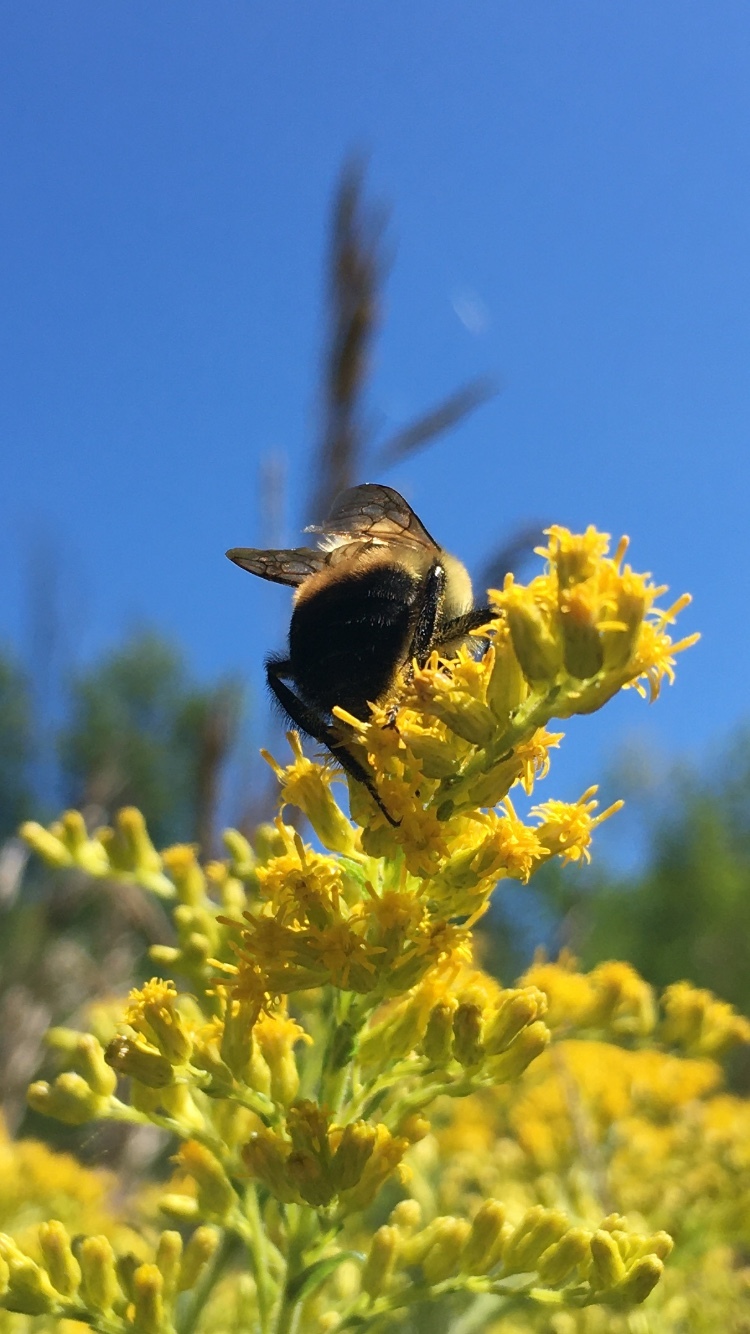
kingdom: Animalia
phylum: Arthropoda
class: Insecta
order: Hymenoptera
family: Apidae
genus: Bombus
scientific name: Bombus griseocollis
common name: Brown-belted bumble bee
